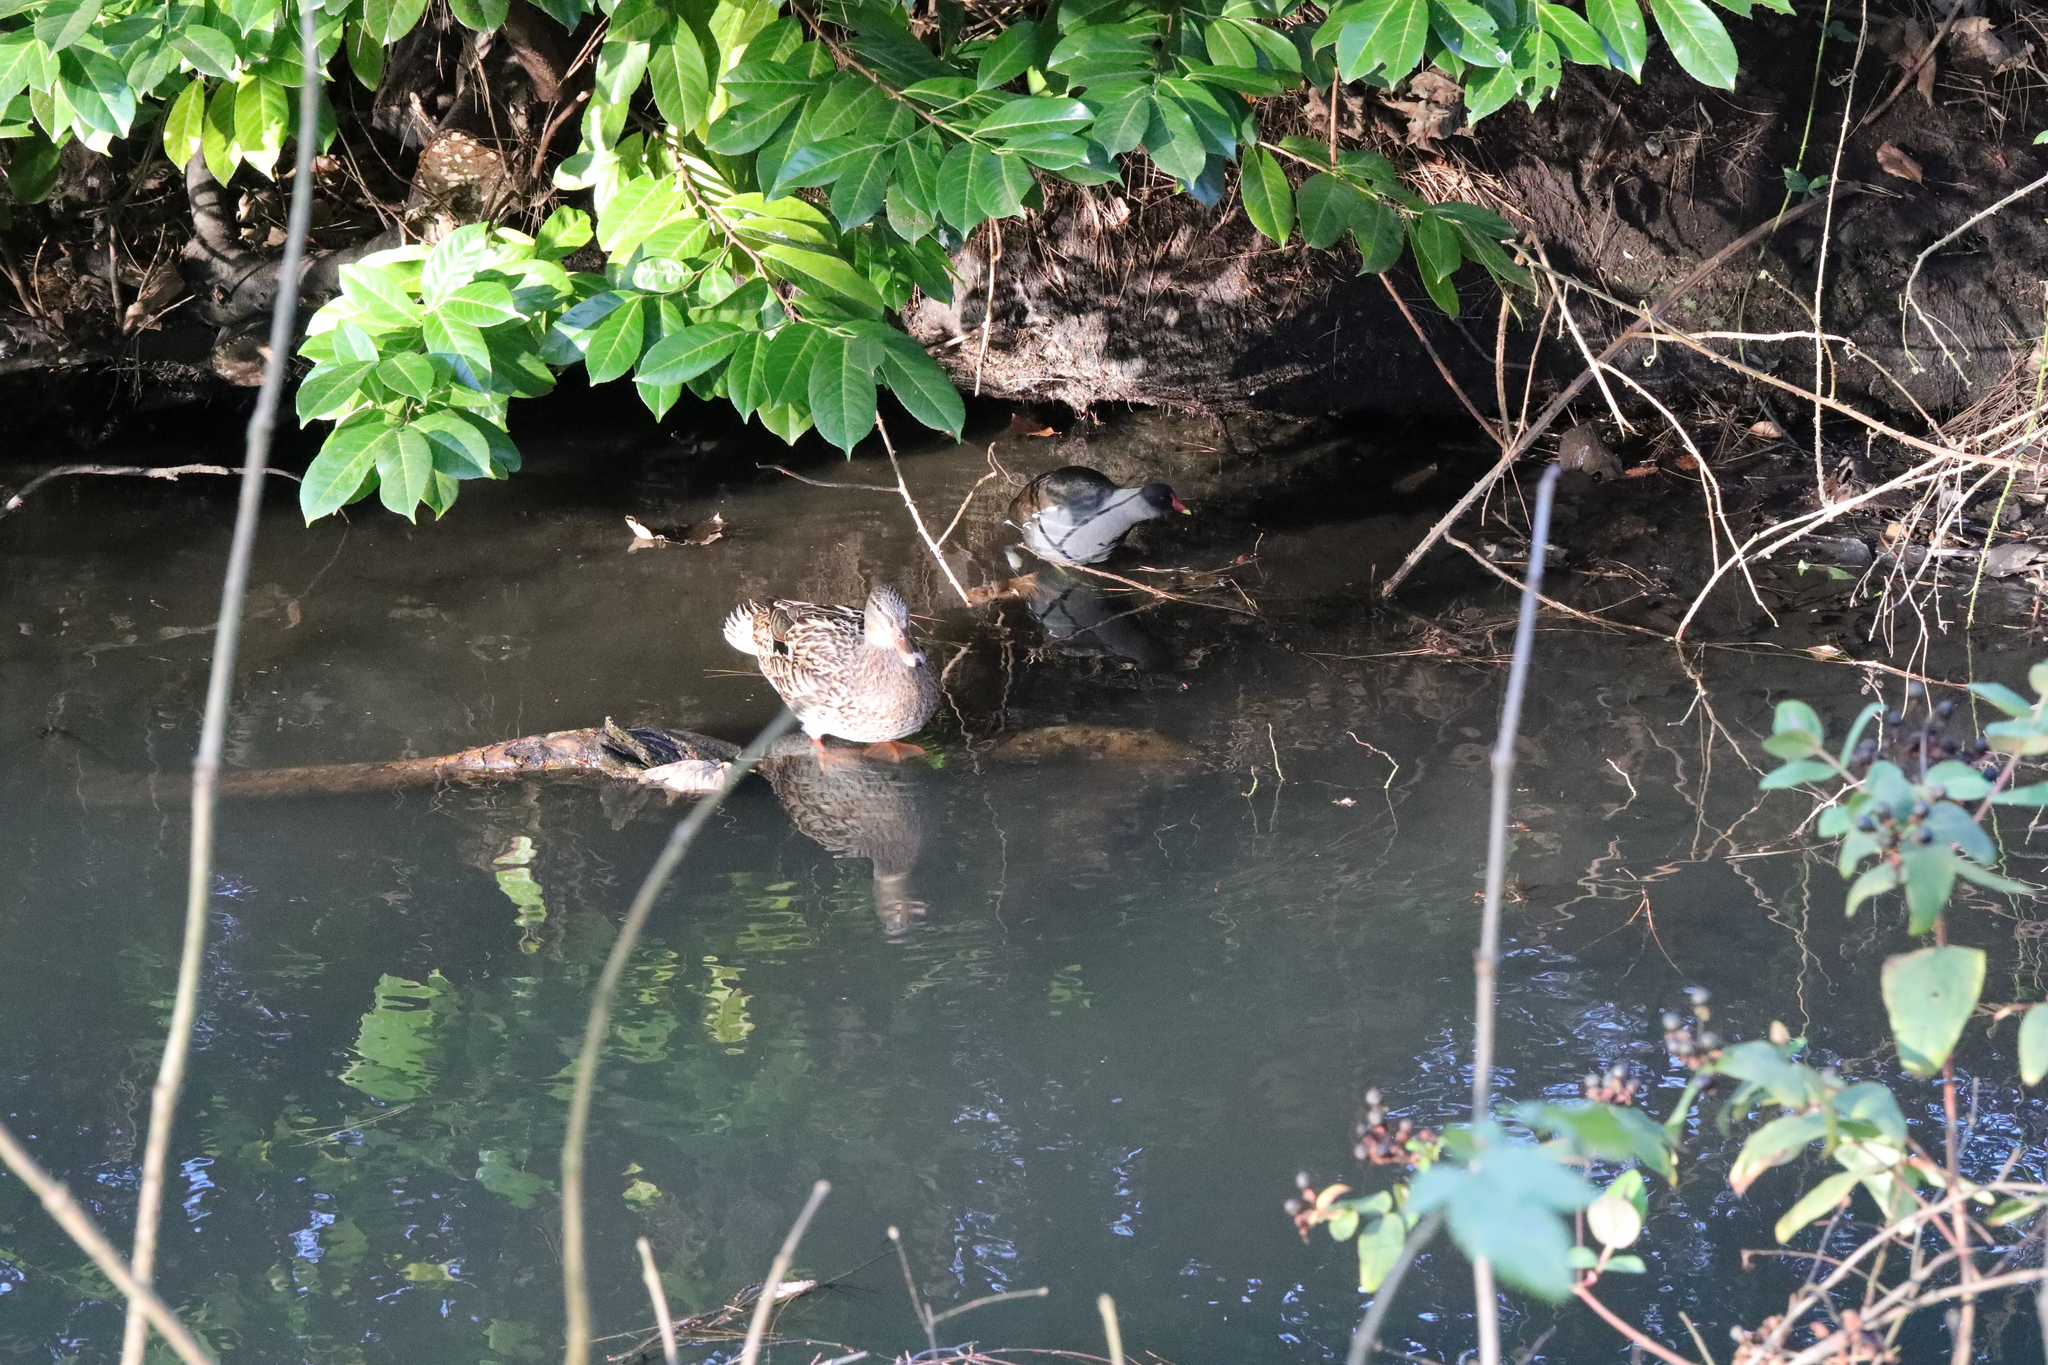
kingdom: Animalia
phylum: Chordata
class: Aves
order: Anseriformes
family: Anatidae
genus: Anas
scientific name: Anas platyrhynchos
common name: Mallard
